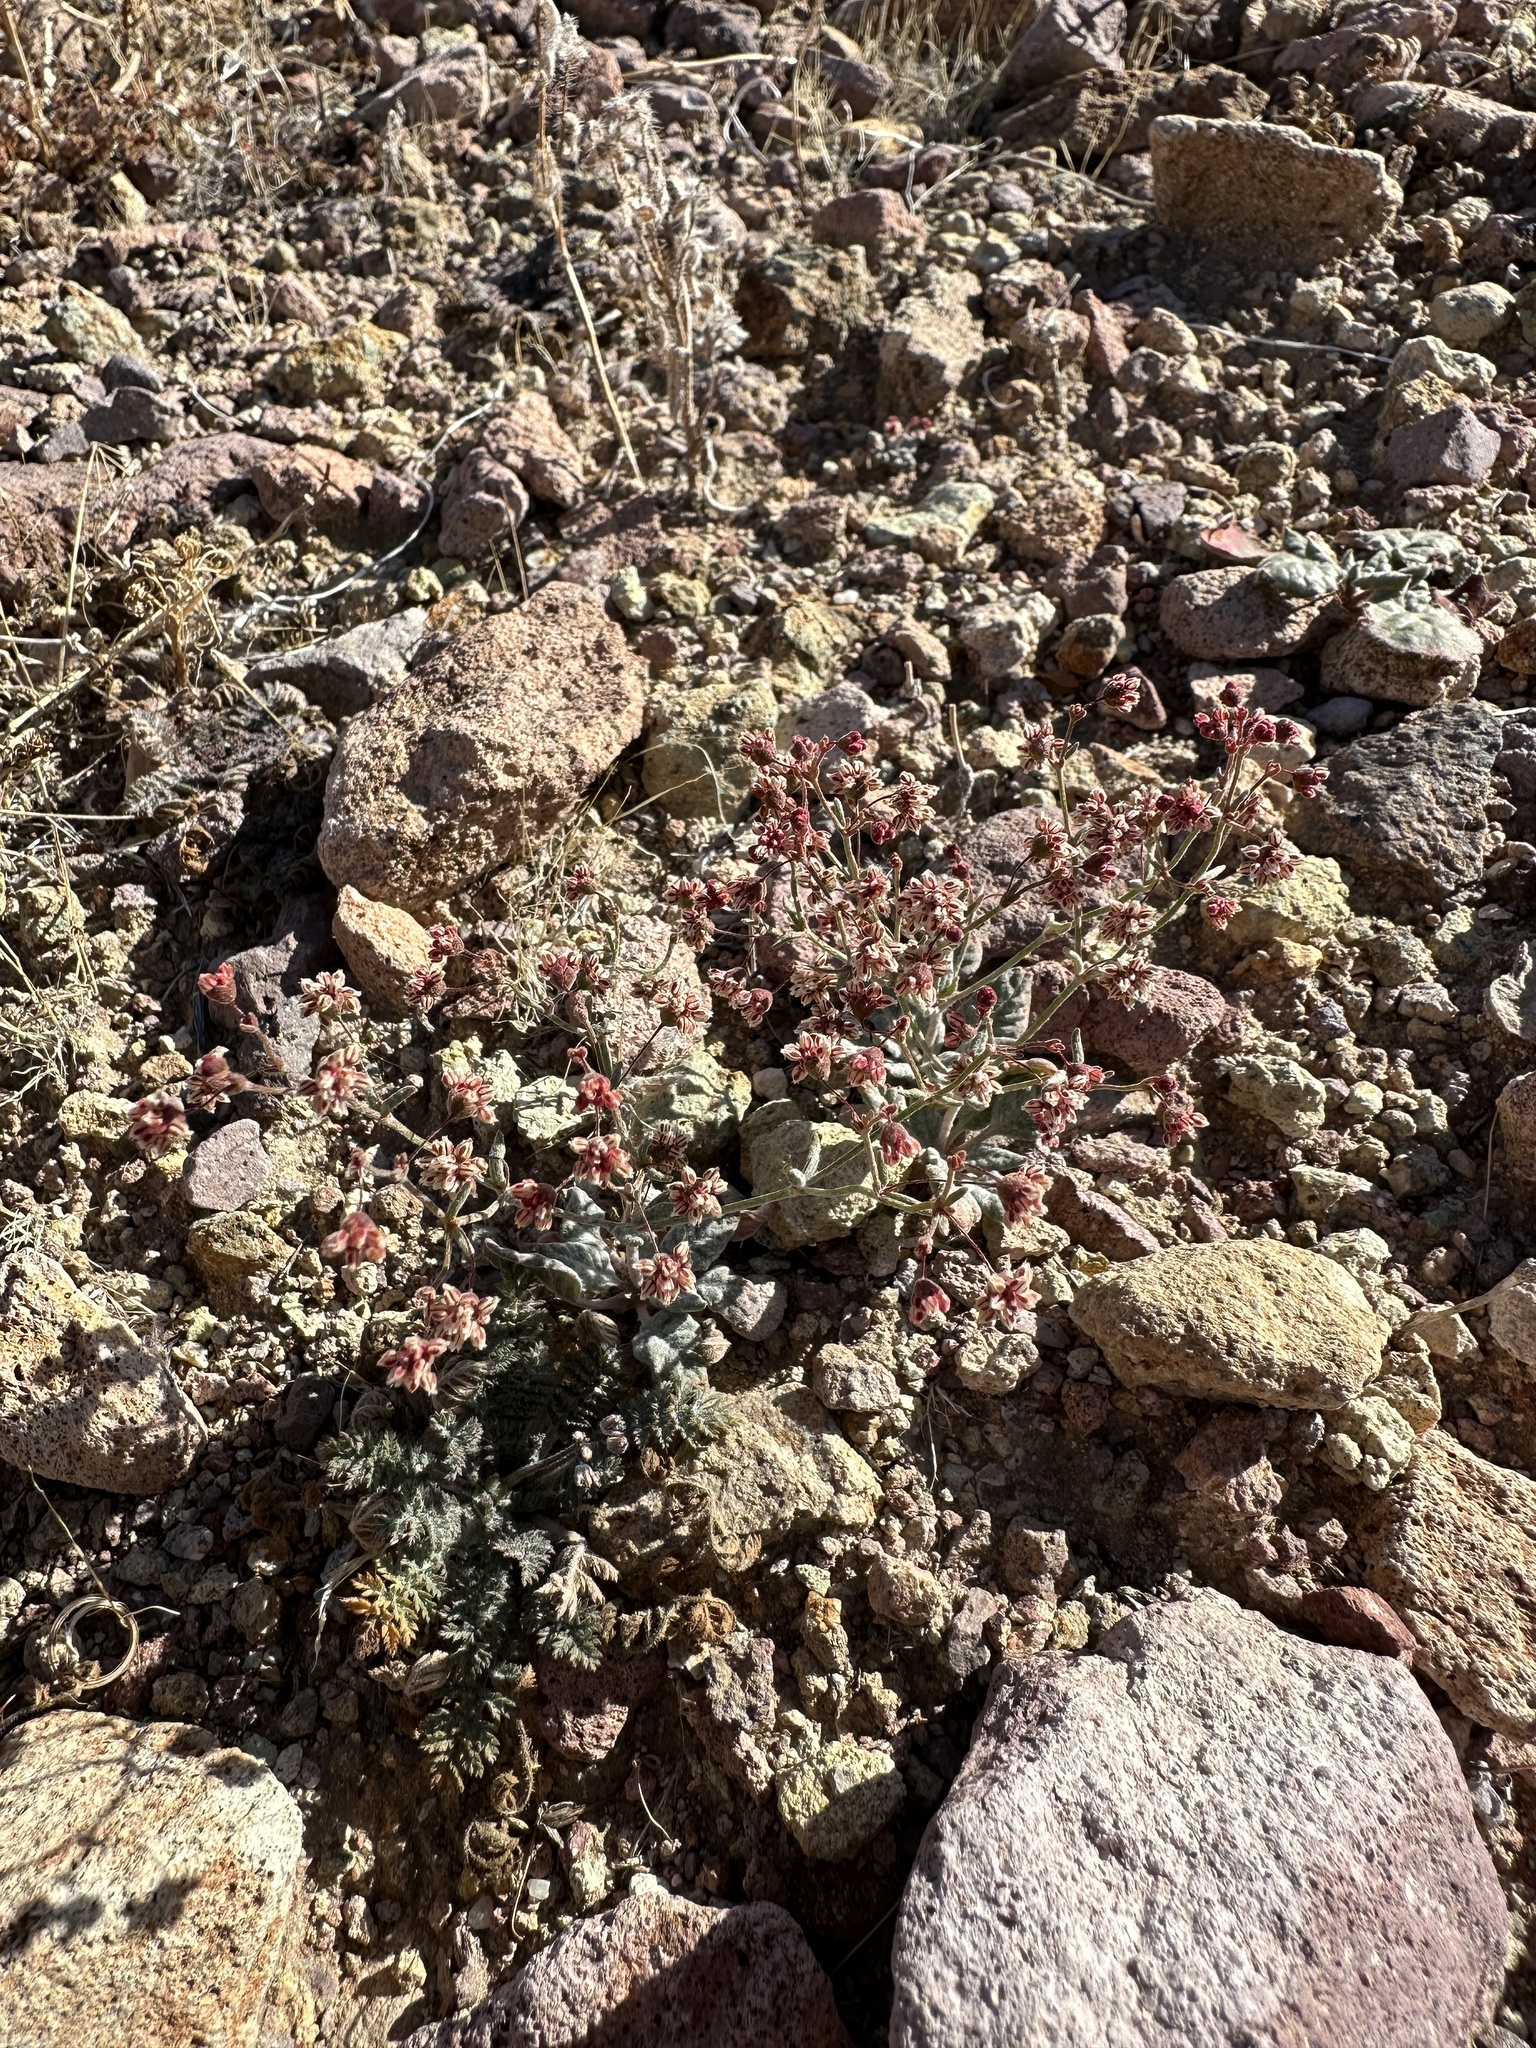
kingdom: Plantae
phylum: Tracheophyta
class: Magnoliopsida
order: Caryophyllales
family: Polygonaceae
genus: Eriogonum
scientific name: Eriogonum maculatum
